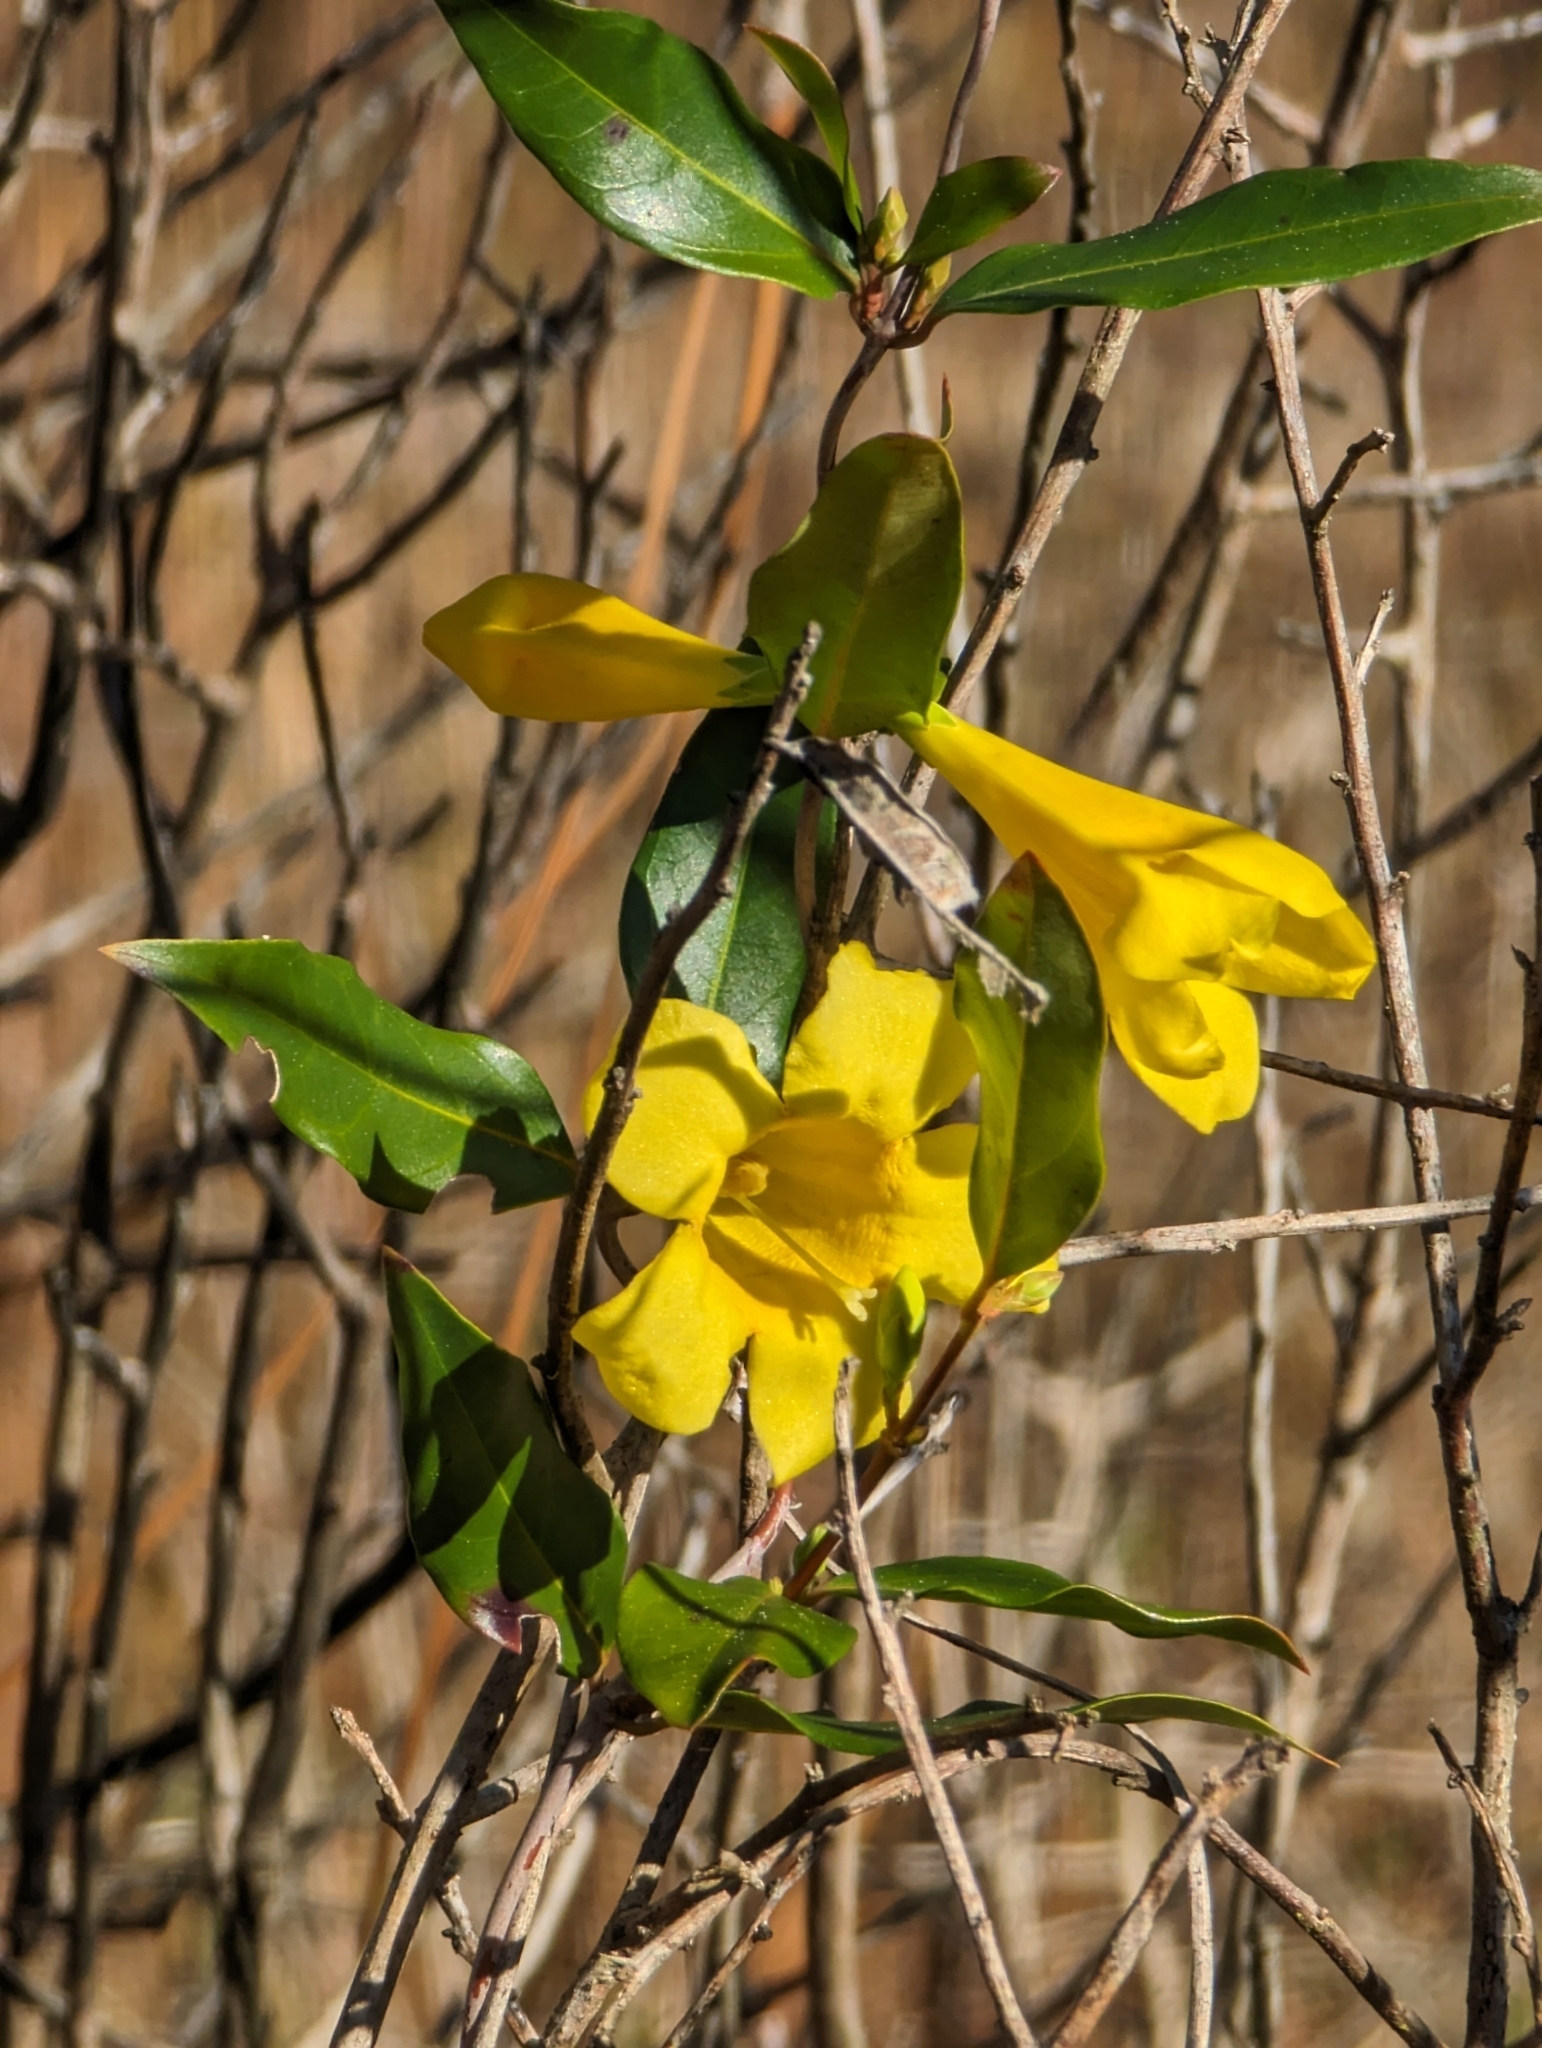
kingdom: Plantae
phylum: Tracheophyta
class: Magnoliopsida
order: Gentianales
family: Gelsemiaceae
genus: Gelsemium
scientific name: Gelsemium sempervirens
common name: Carolina-jasmine
